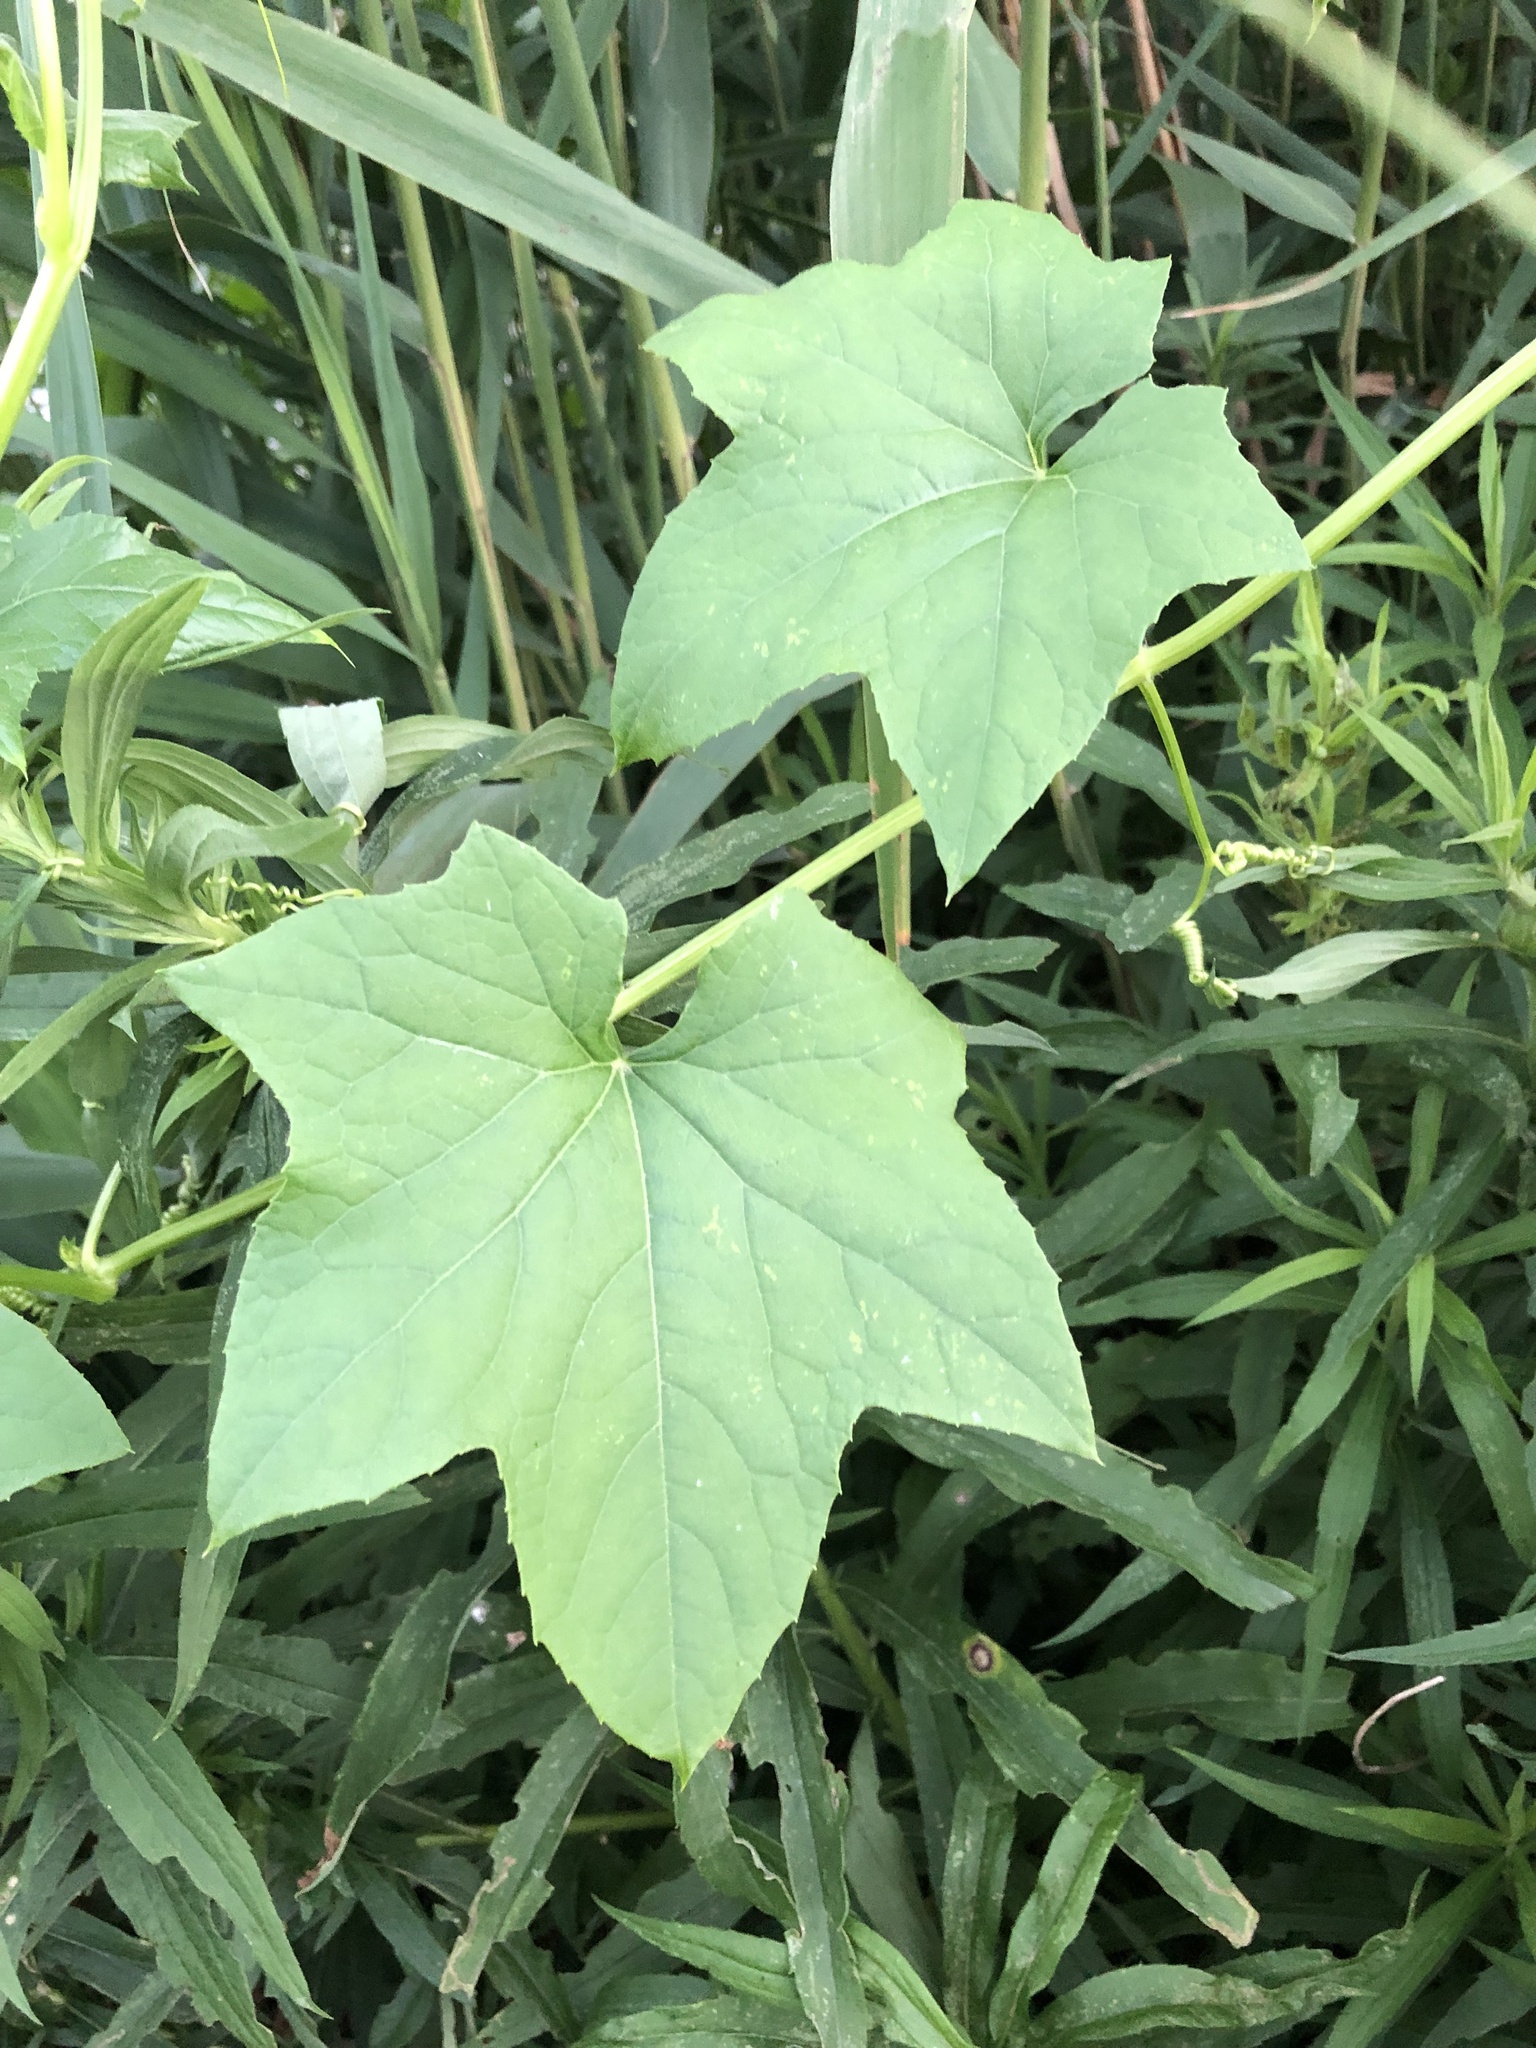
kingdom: Plantae
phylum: Tracheophyta
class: Magnoliopsida
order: Cucurbitales
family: Cucurbitaceae
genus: Sicyos
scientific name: Sicyos angulatus
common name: Angled burr cucumber
